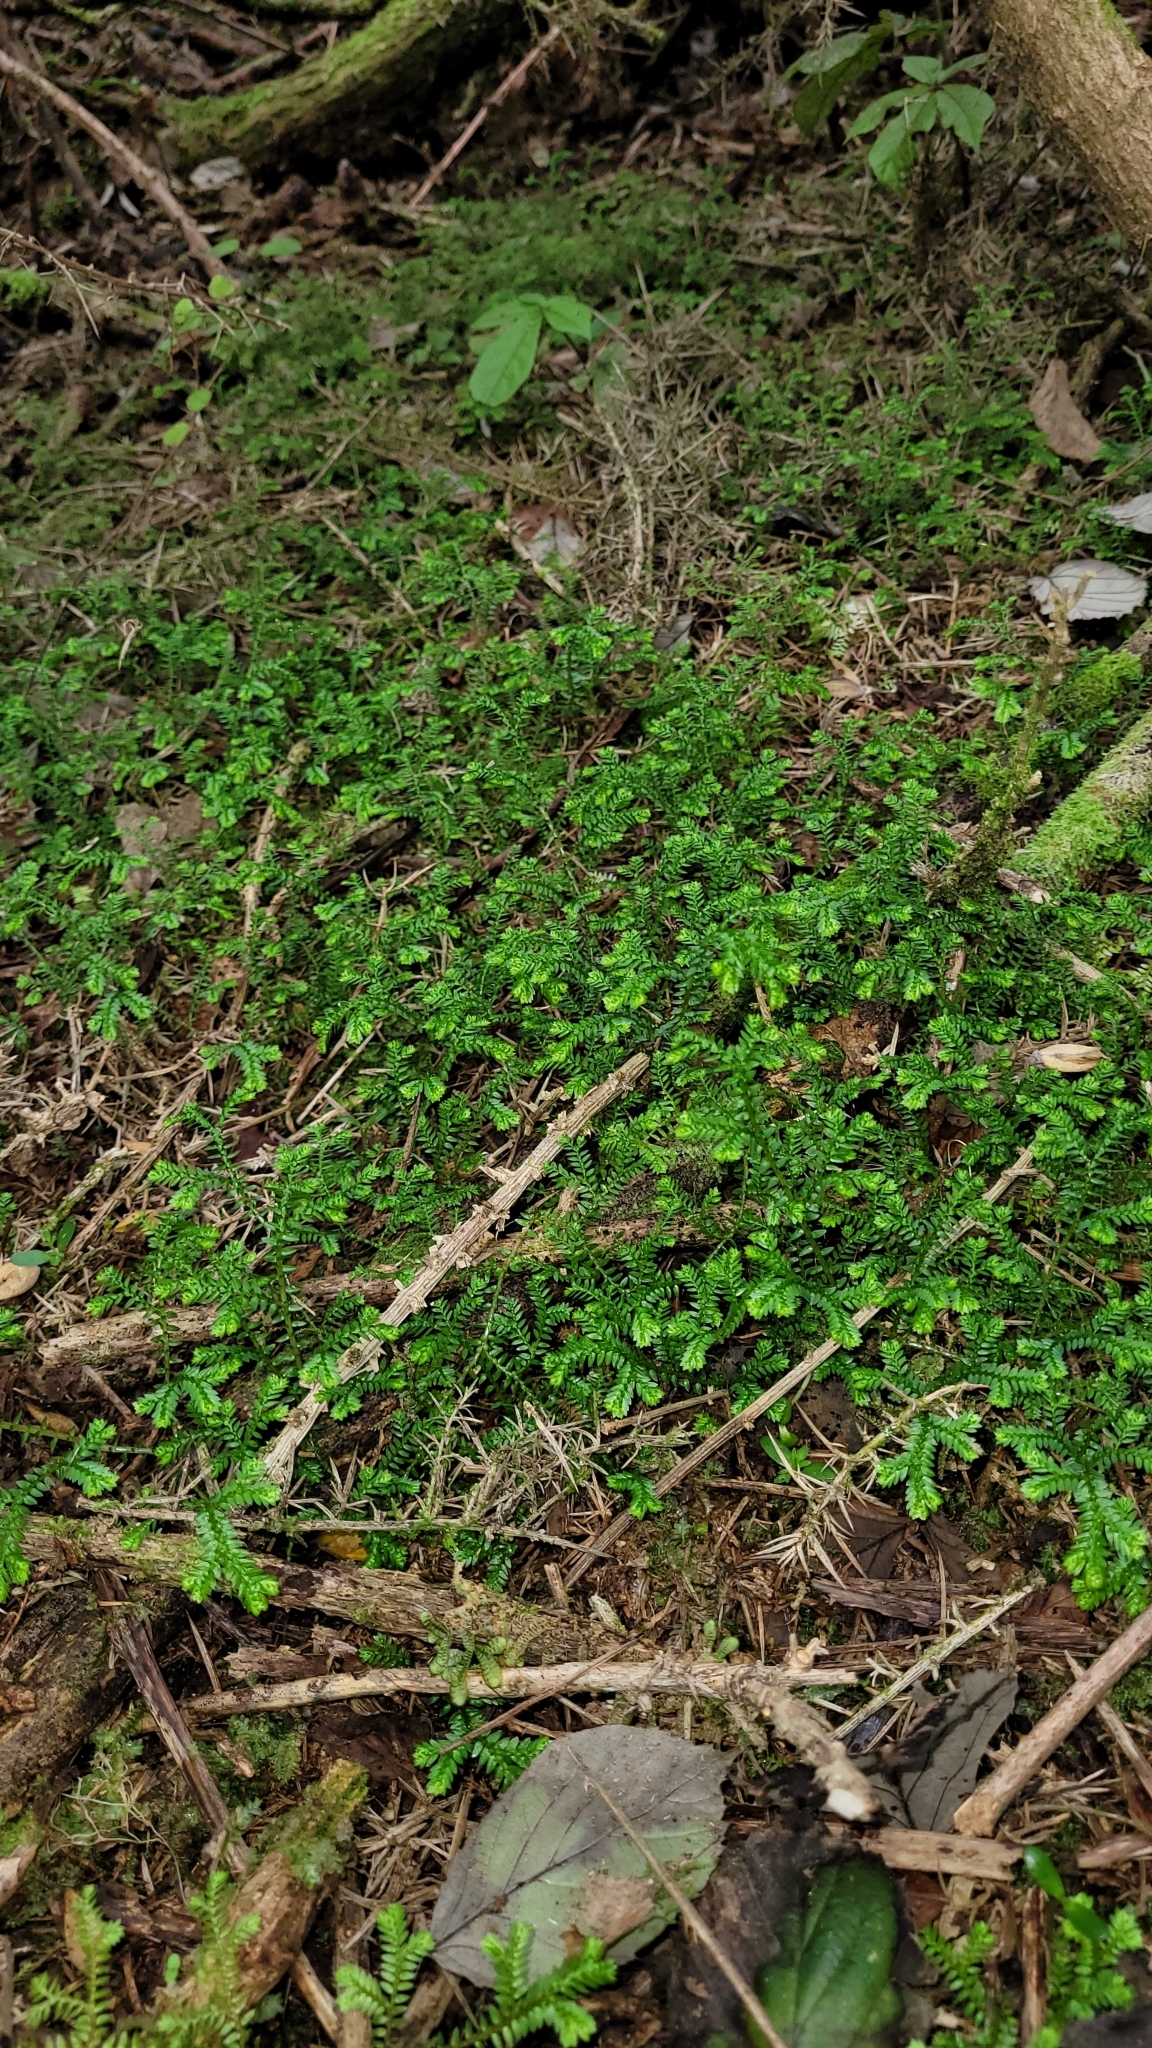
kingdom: Plantae
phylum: Tracheophyta
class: Lycopodiopsida
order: Selaginellales
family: Selaginellaceae
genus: Selaginella
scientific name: Selaginella kraussiana
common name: Krauss' spikemoss
